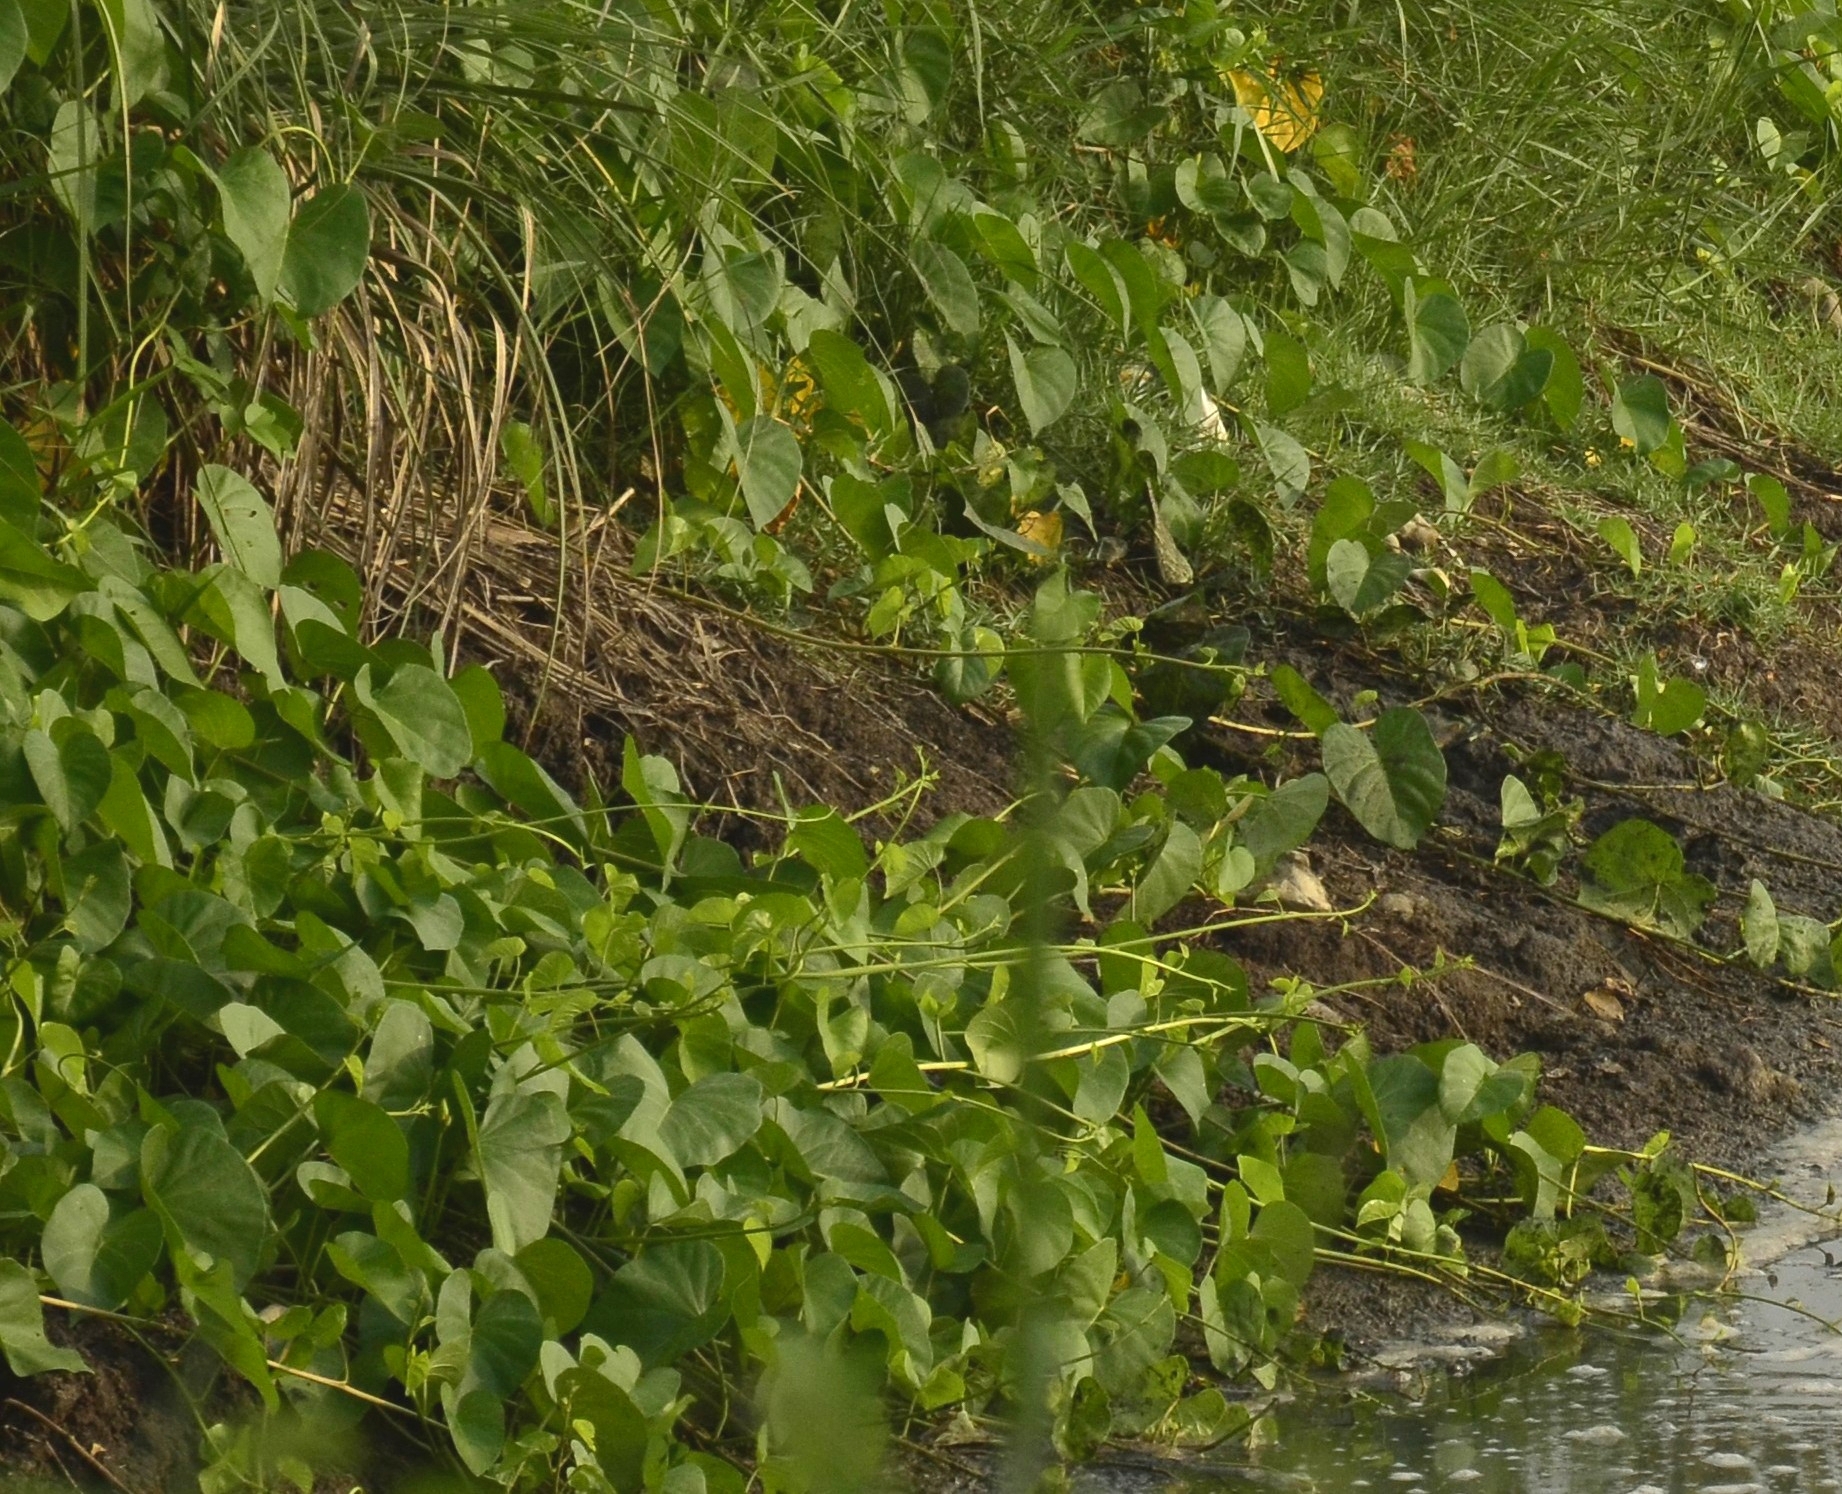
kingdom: Plantae
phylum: Tracheophyta
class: Magnoliopsida
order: Solanales
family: Convolvulaceae
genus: Ipomoea
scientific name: Ipomoea violacea
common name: Beach moonflower
